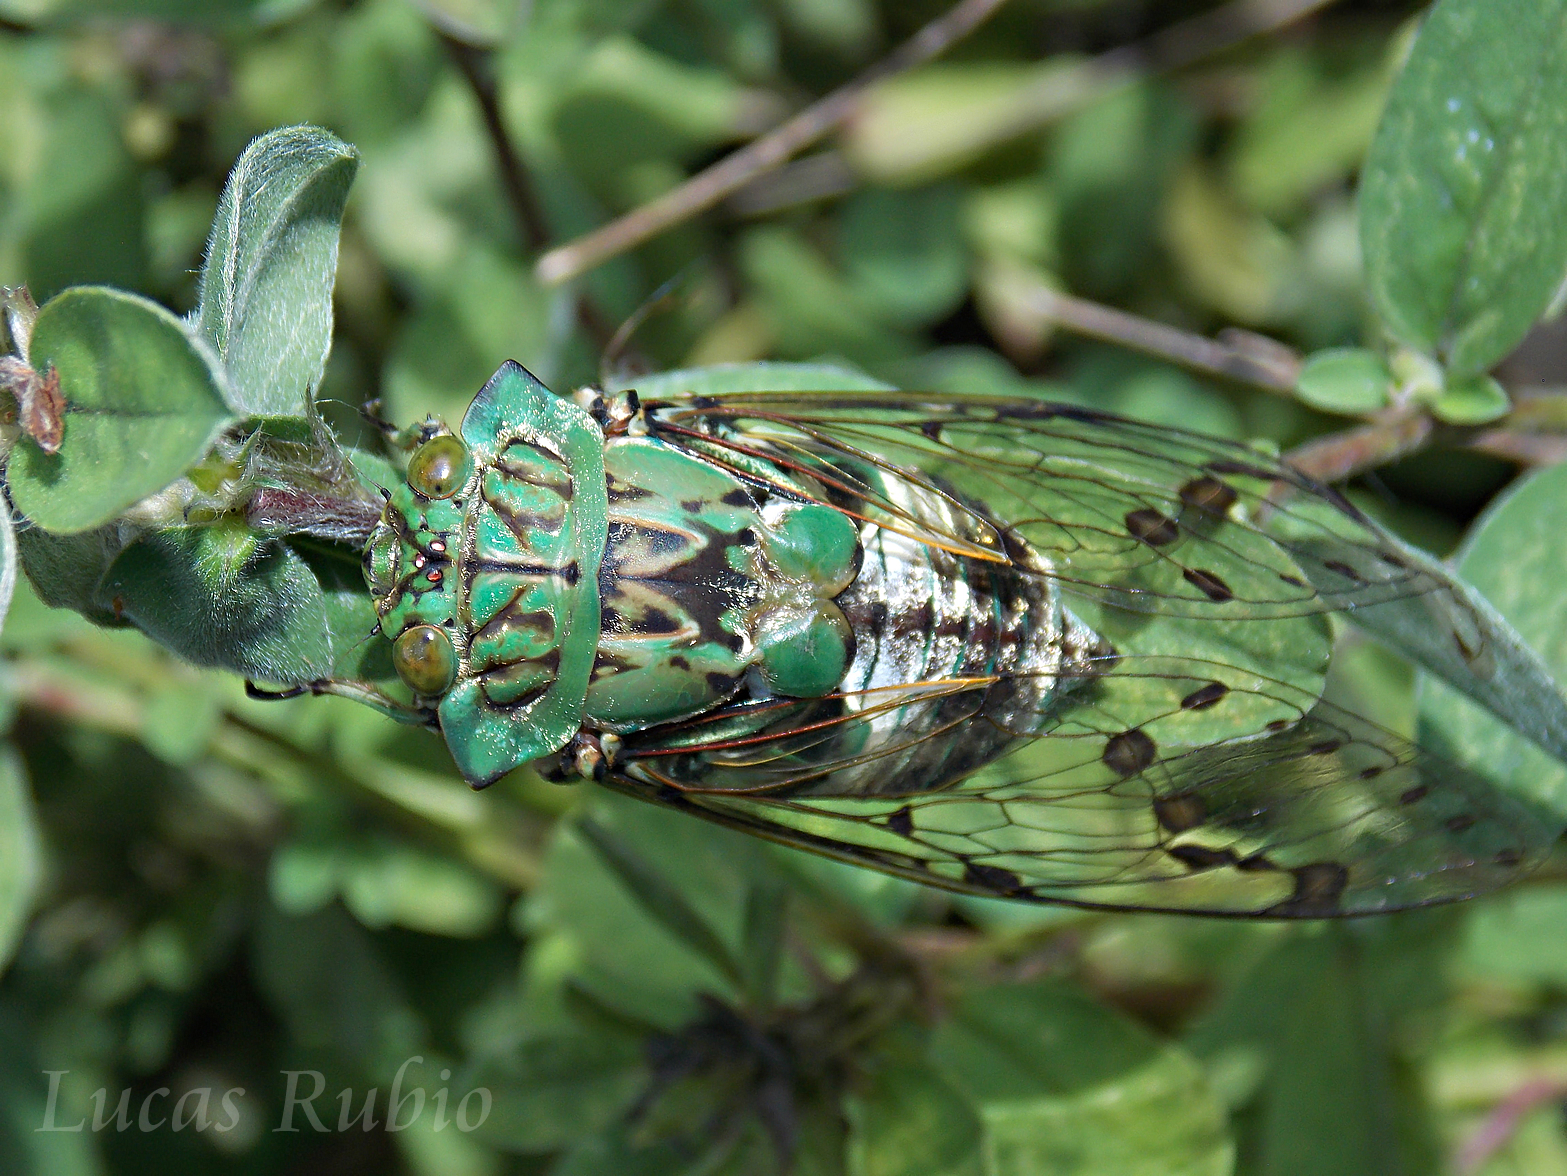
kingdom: Animalia
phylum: Arthropoda
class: Insecta
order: Hemiptera
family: Cicadidae
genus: Zammara
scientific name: Zammara tympanum
